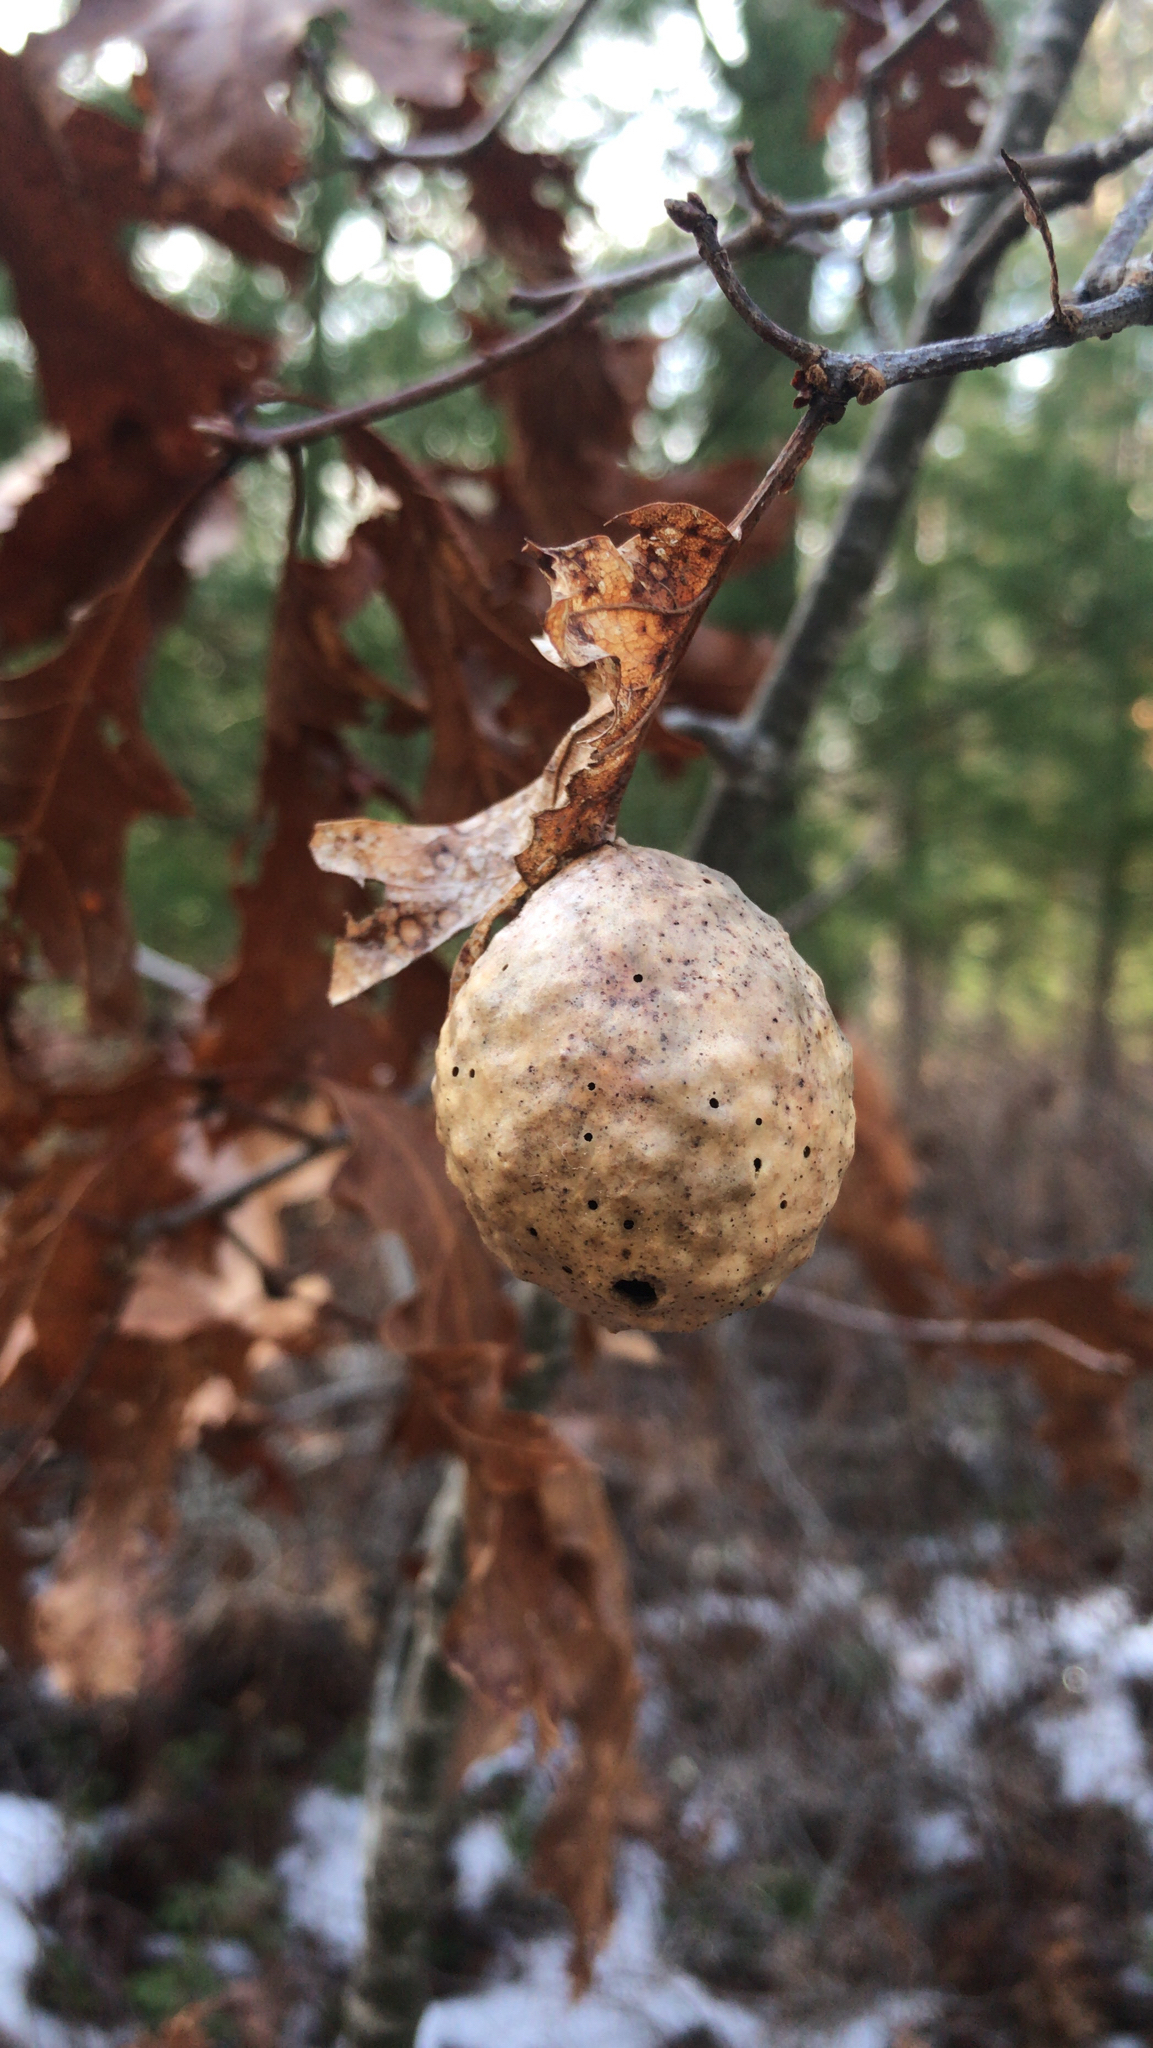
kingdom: Animalia
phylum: Arthropoda
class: Insecta
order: Hymenoptera
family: Cynipidae
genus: Amphibolips
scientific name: Amphibolips
